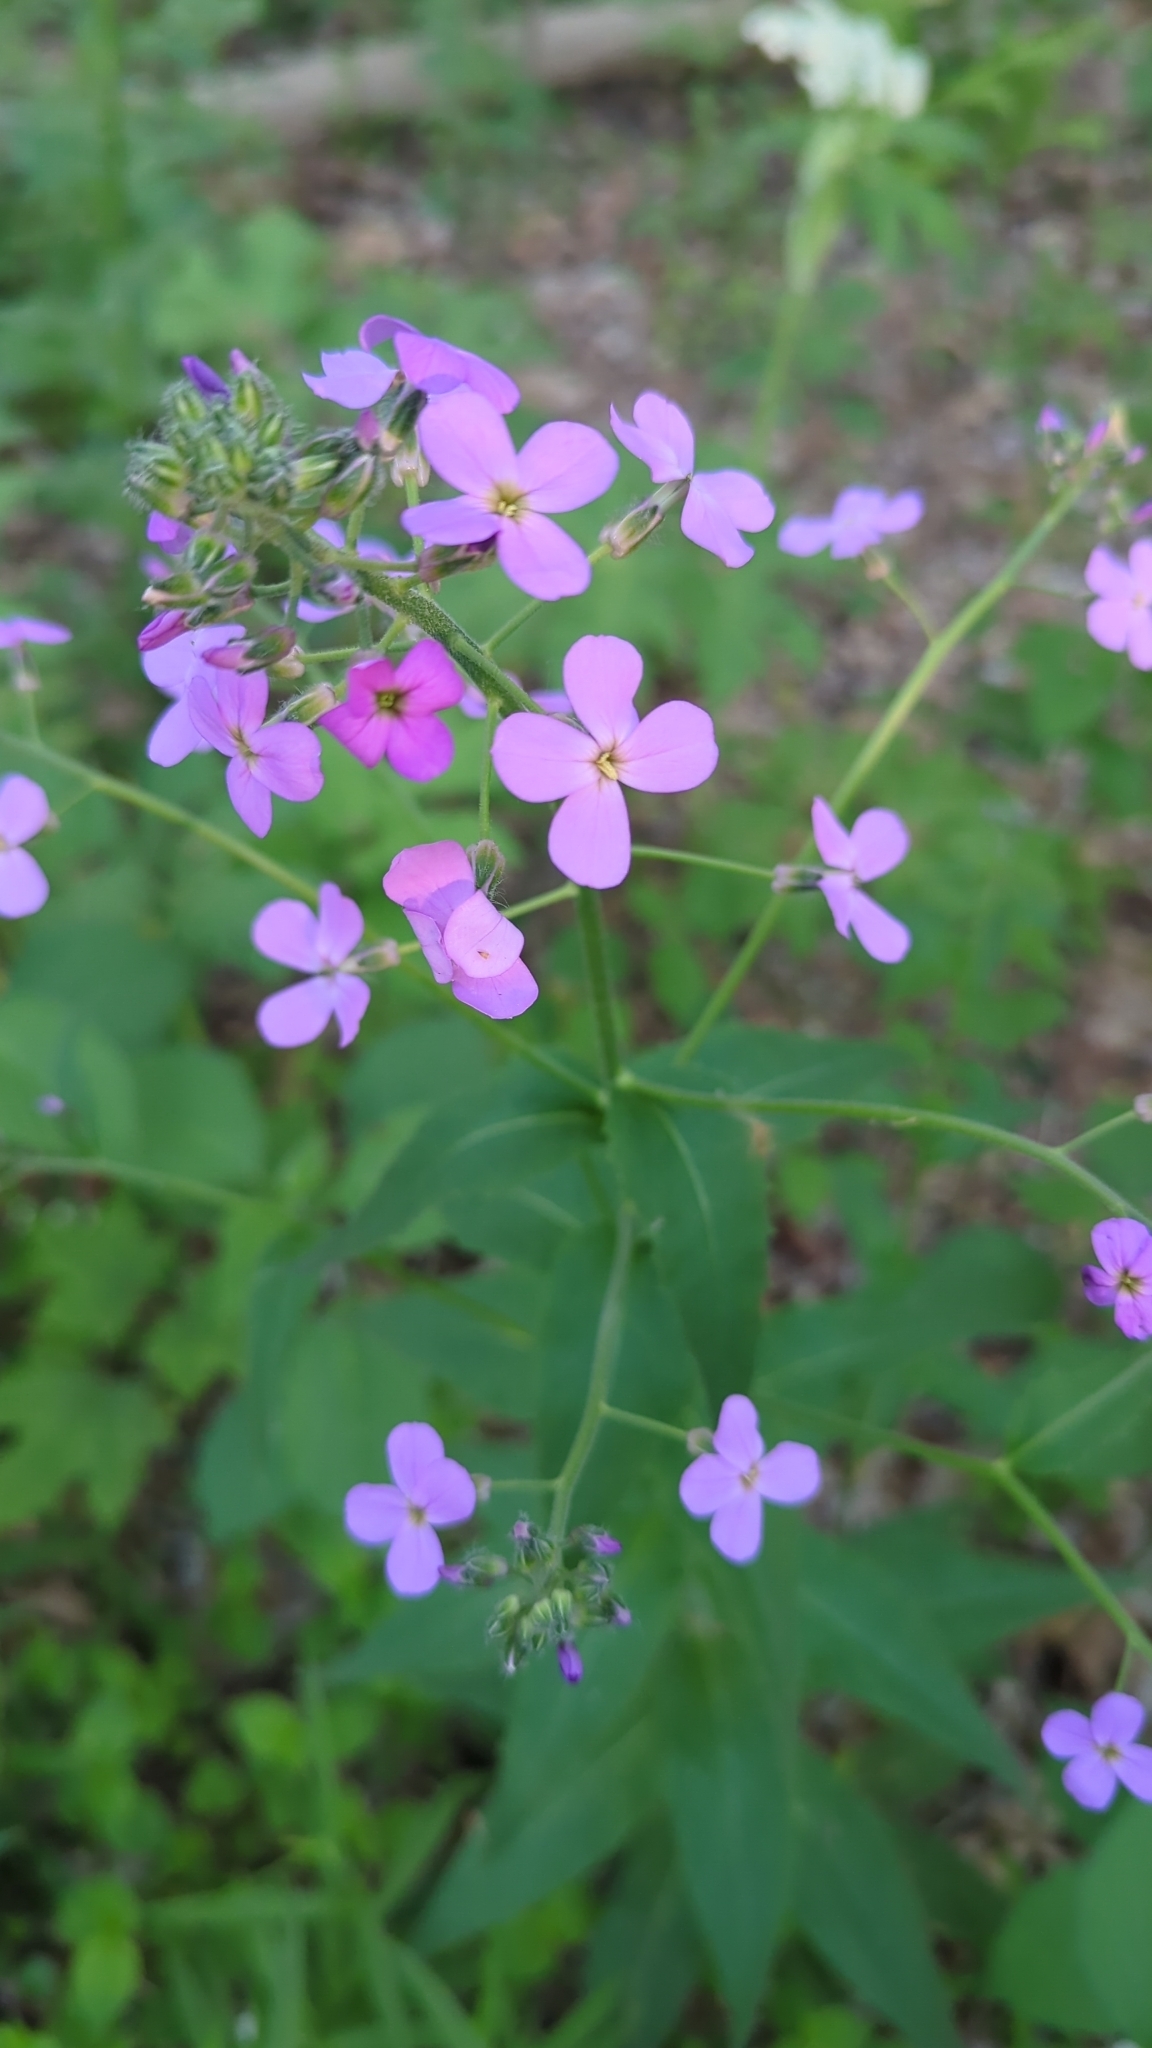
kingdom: Plantae
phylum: Tracheophyta
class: Magnoliopsida
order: Brassicales
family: Brassicaceae
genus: Hesperis
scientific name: Hesperis matronalis
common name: Dame's-violet
